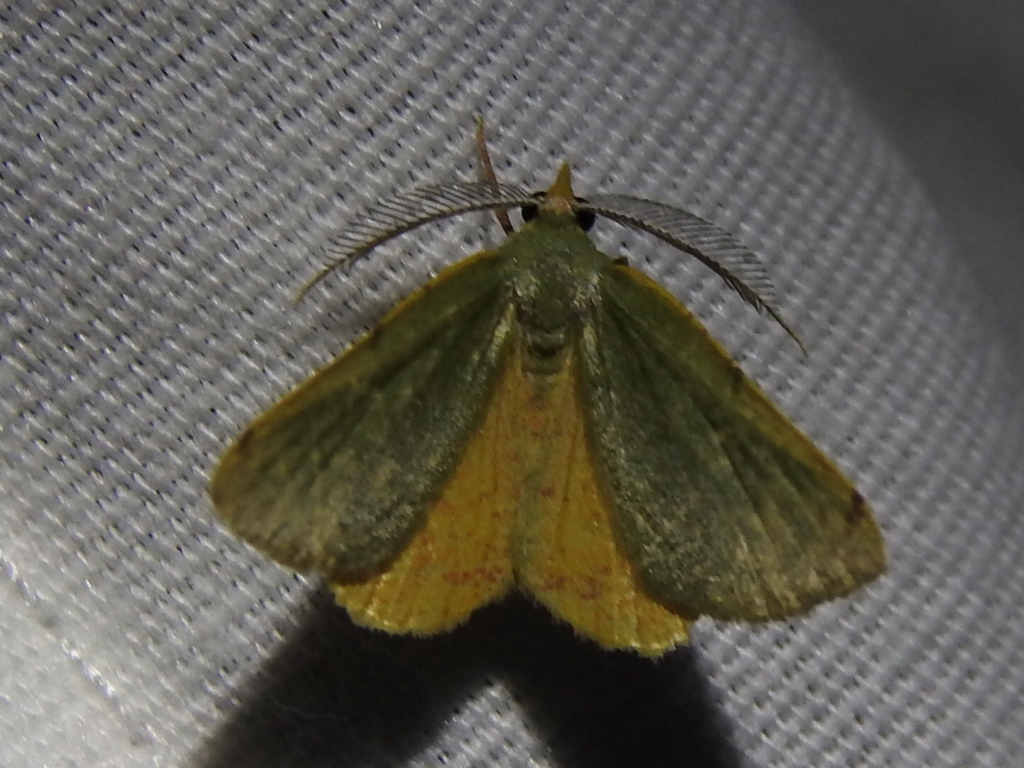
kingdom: Animalia
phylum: Arthropoda
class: Insecta
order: Lepidoptera
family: Geometridae
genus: Chloraspilates
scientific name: Chloraspilates bicoloraria
